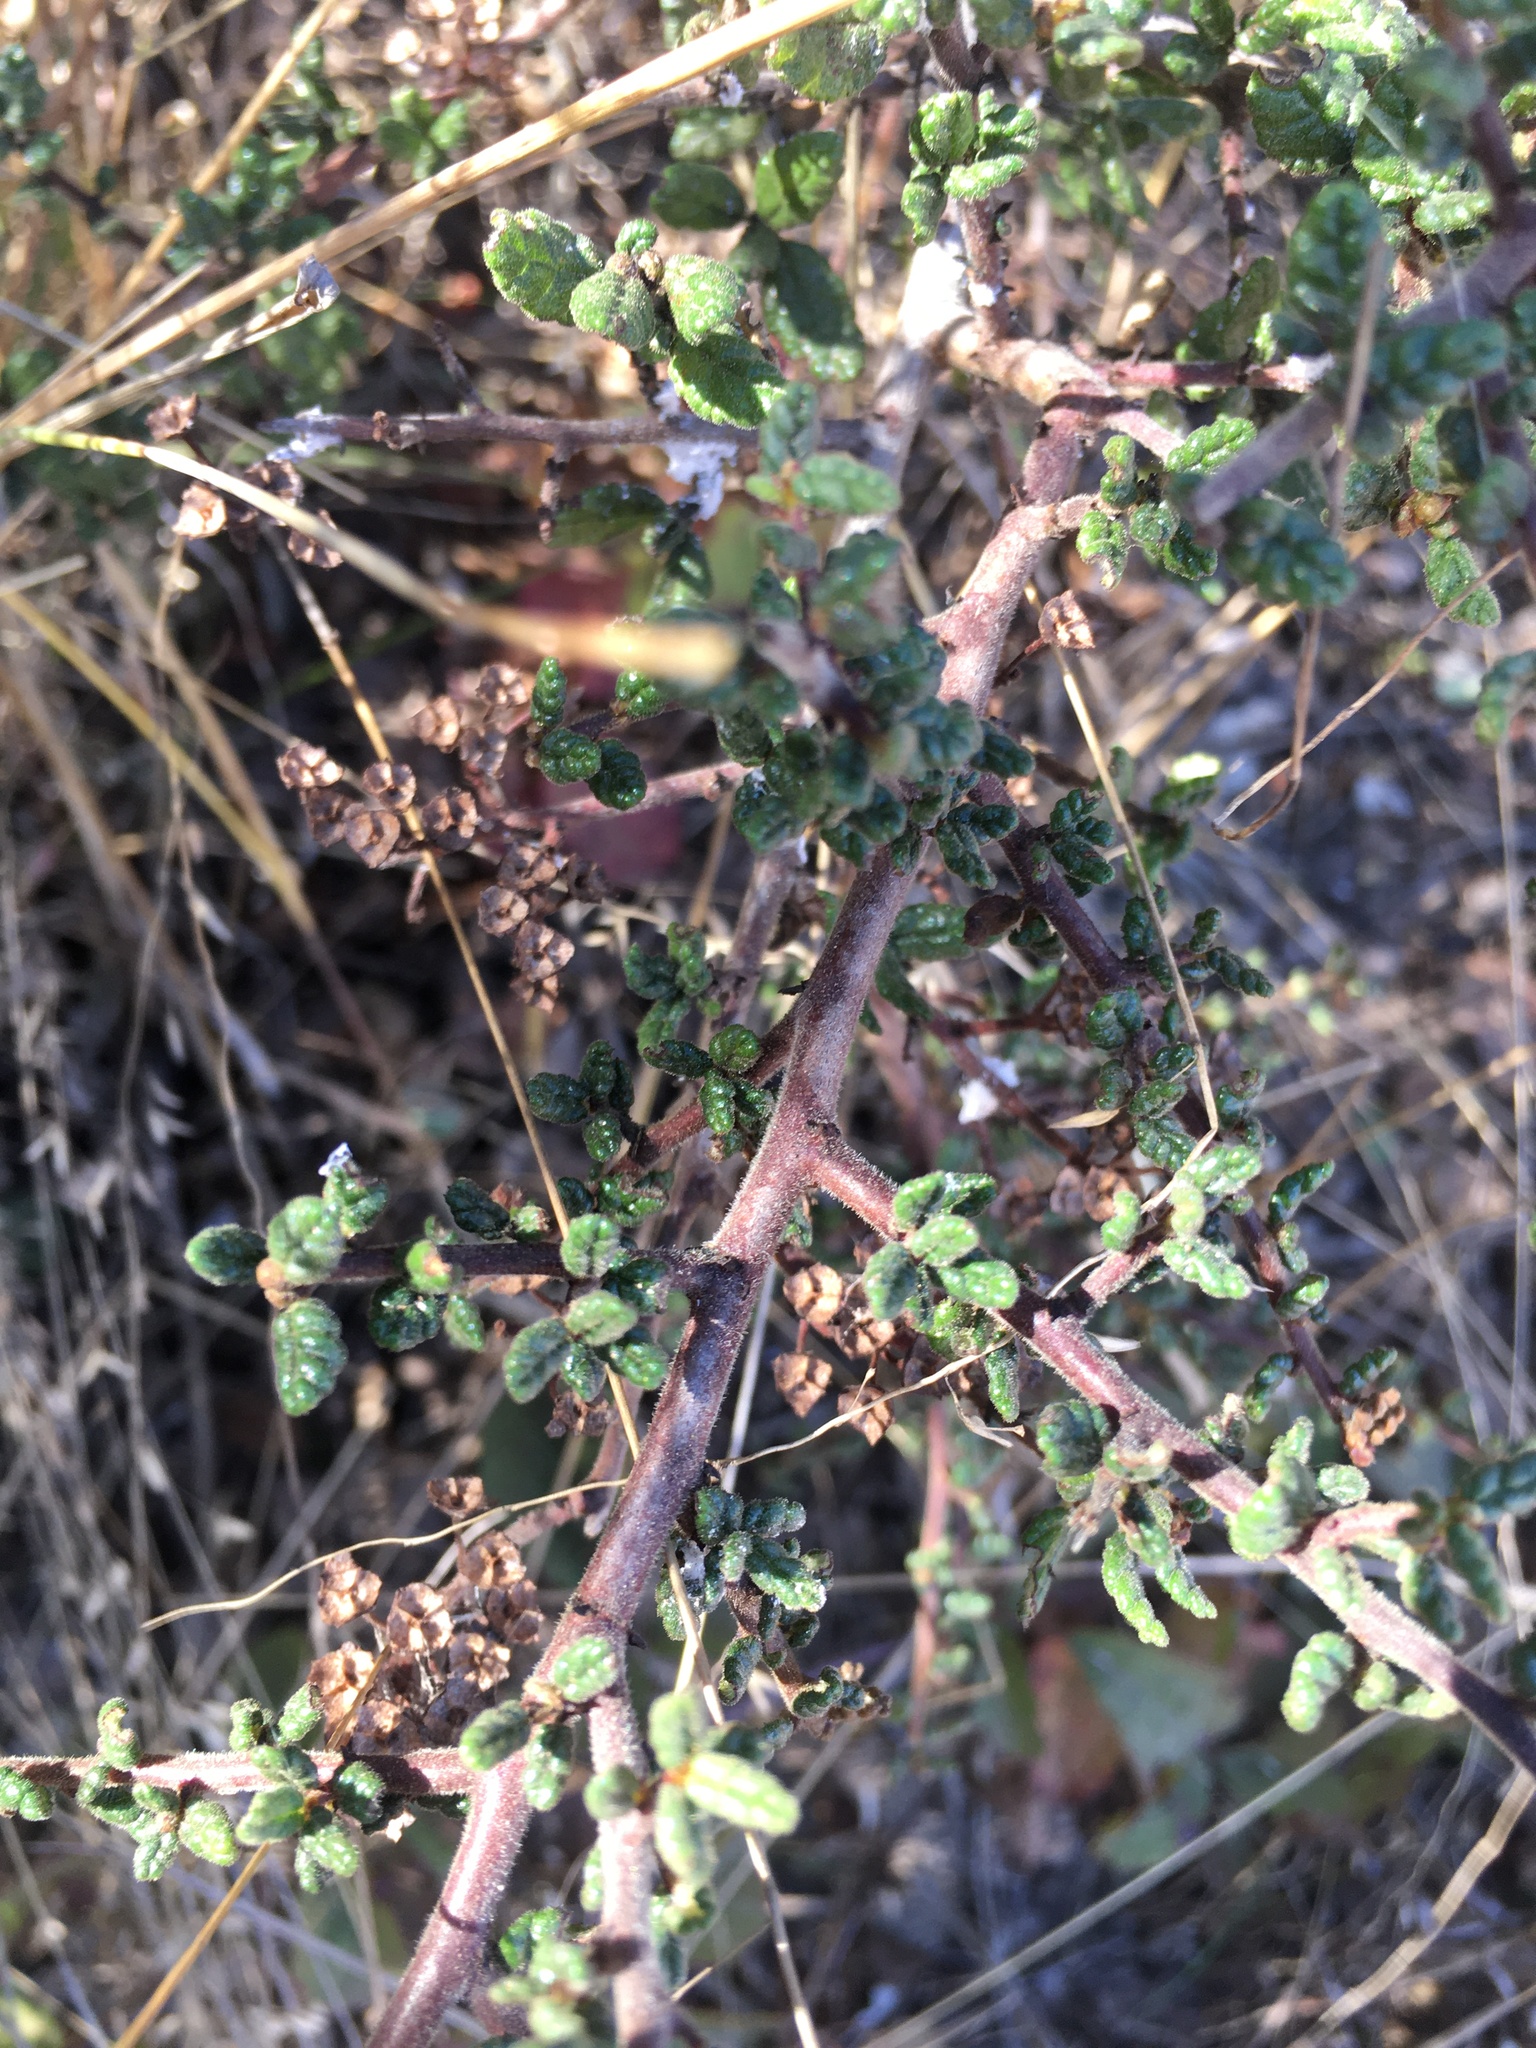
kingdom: Plantae
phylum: Tracheophyta
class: Magnoliopsida
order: Rosales
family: Rhamnaceae
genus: Ceanothus
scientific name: Ceanothus impressus
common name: Santa barbara ceanothus
